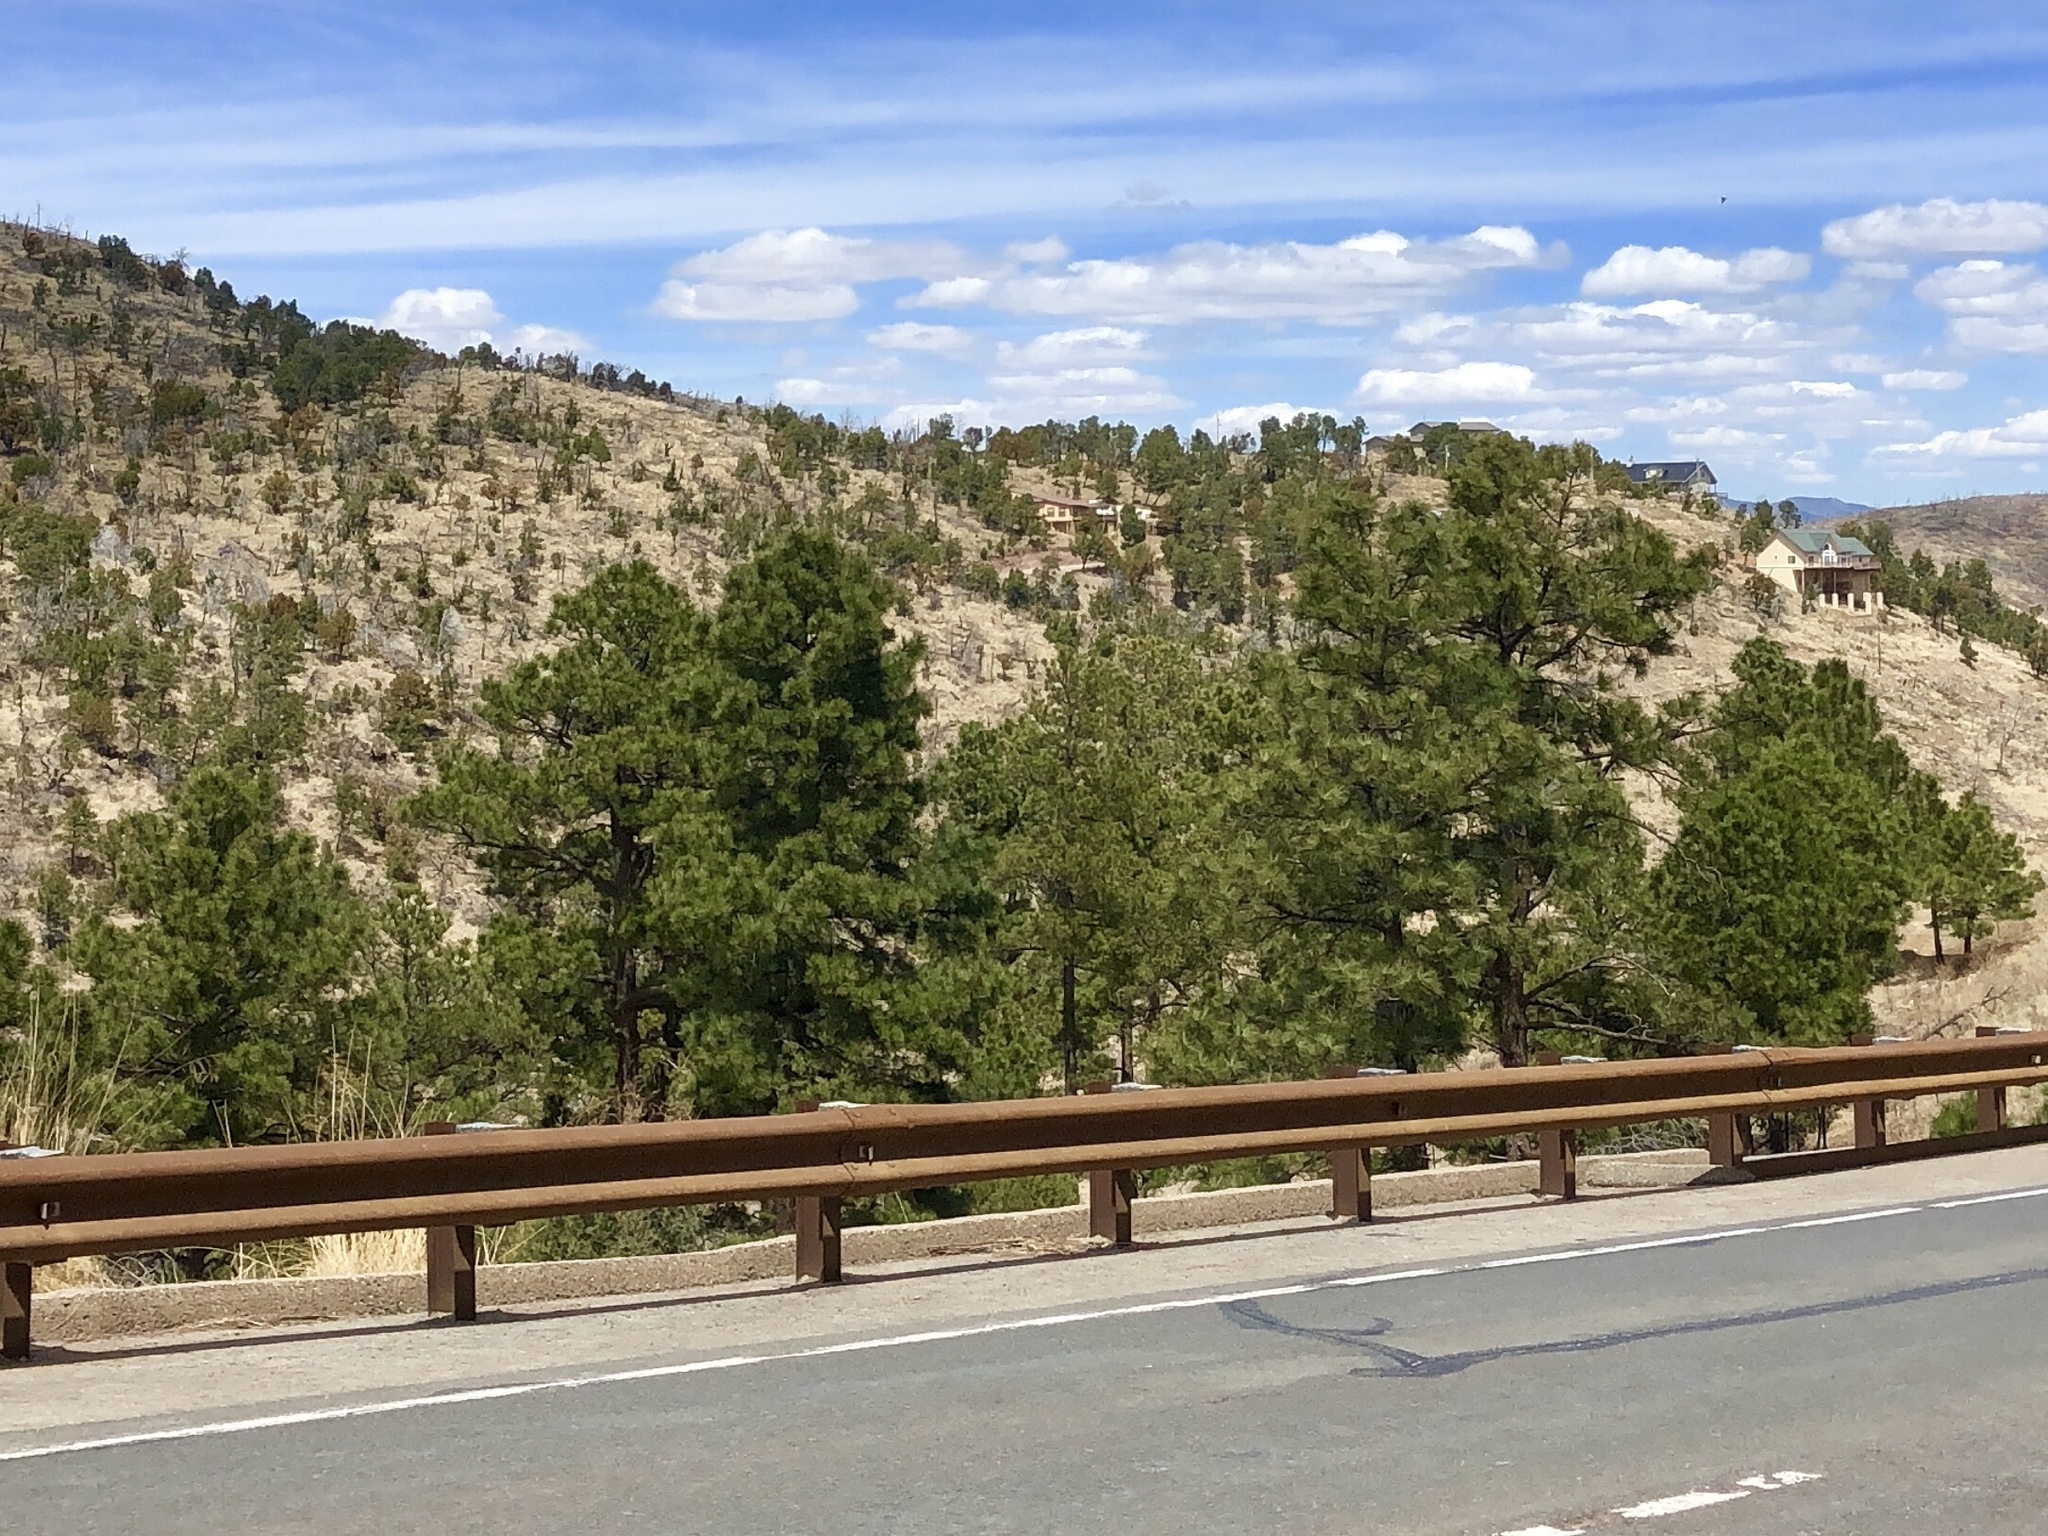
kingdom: Plantae
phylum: Tracheophyta
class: Pinopsida
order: Pinales
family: Pinaceae
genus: Pinus
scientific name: Pinus ponderosa
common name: Western yellow-pine
